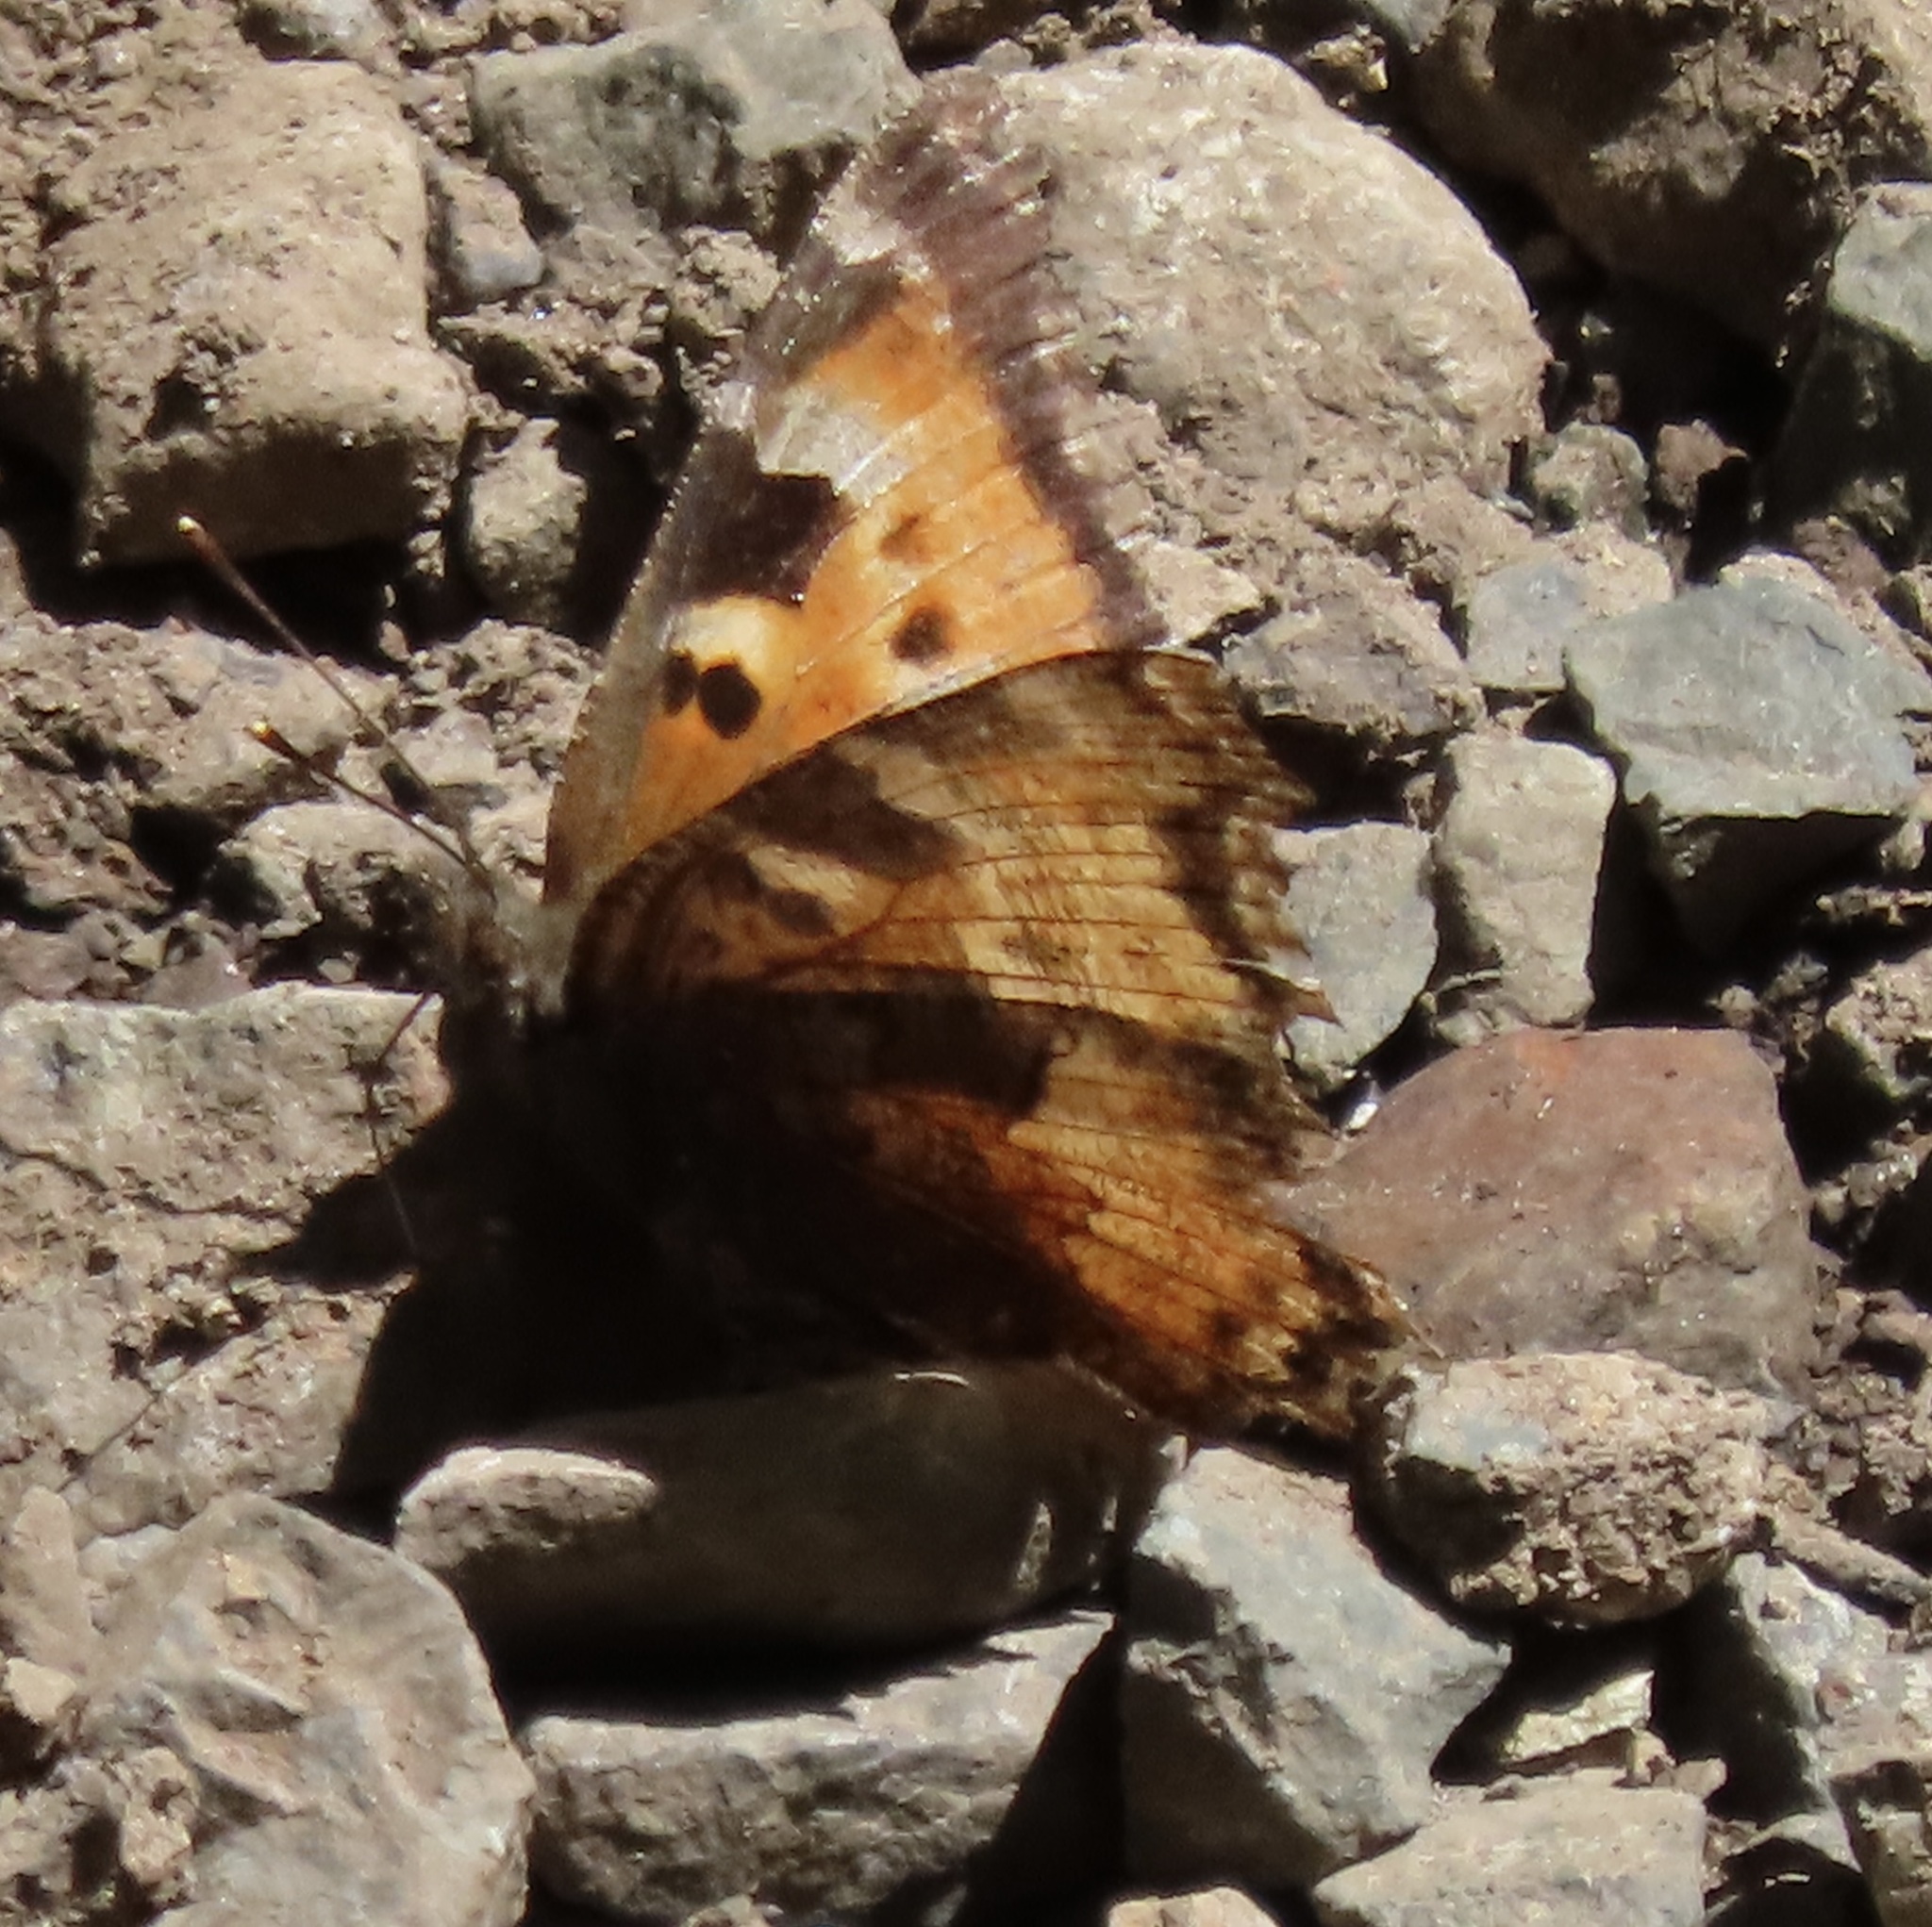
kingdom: Animalia
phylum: Arthropoda
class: Insecta
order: Lepidoptera
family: Nymphalidae
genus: Nymphalis
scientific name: Nymphalis californica
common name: California tortoiseshell
